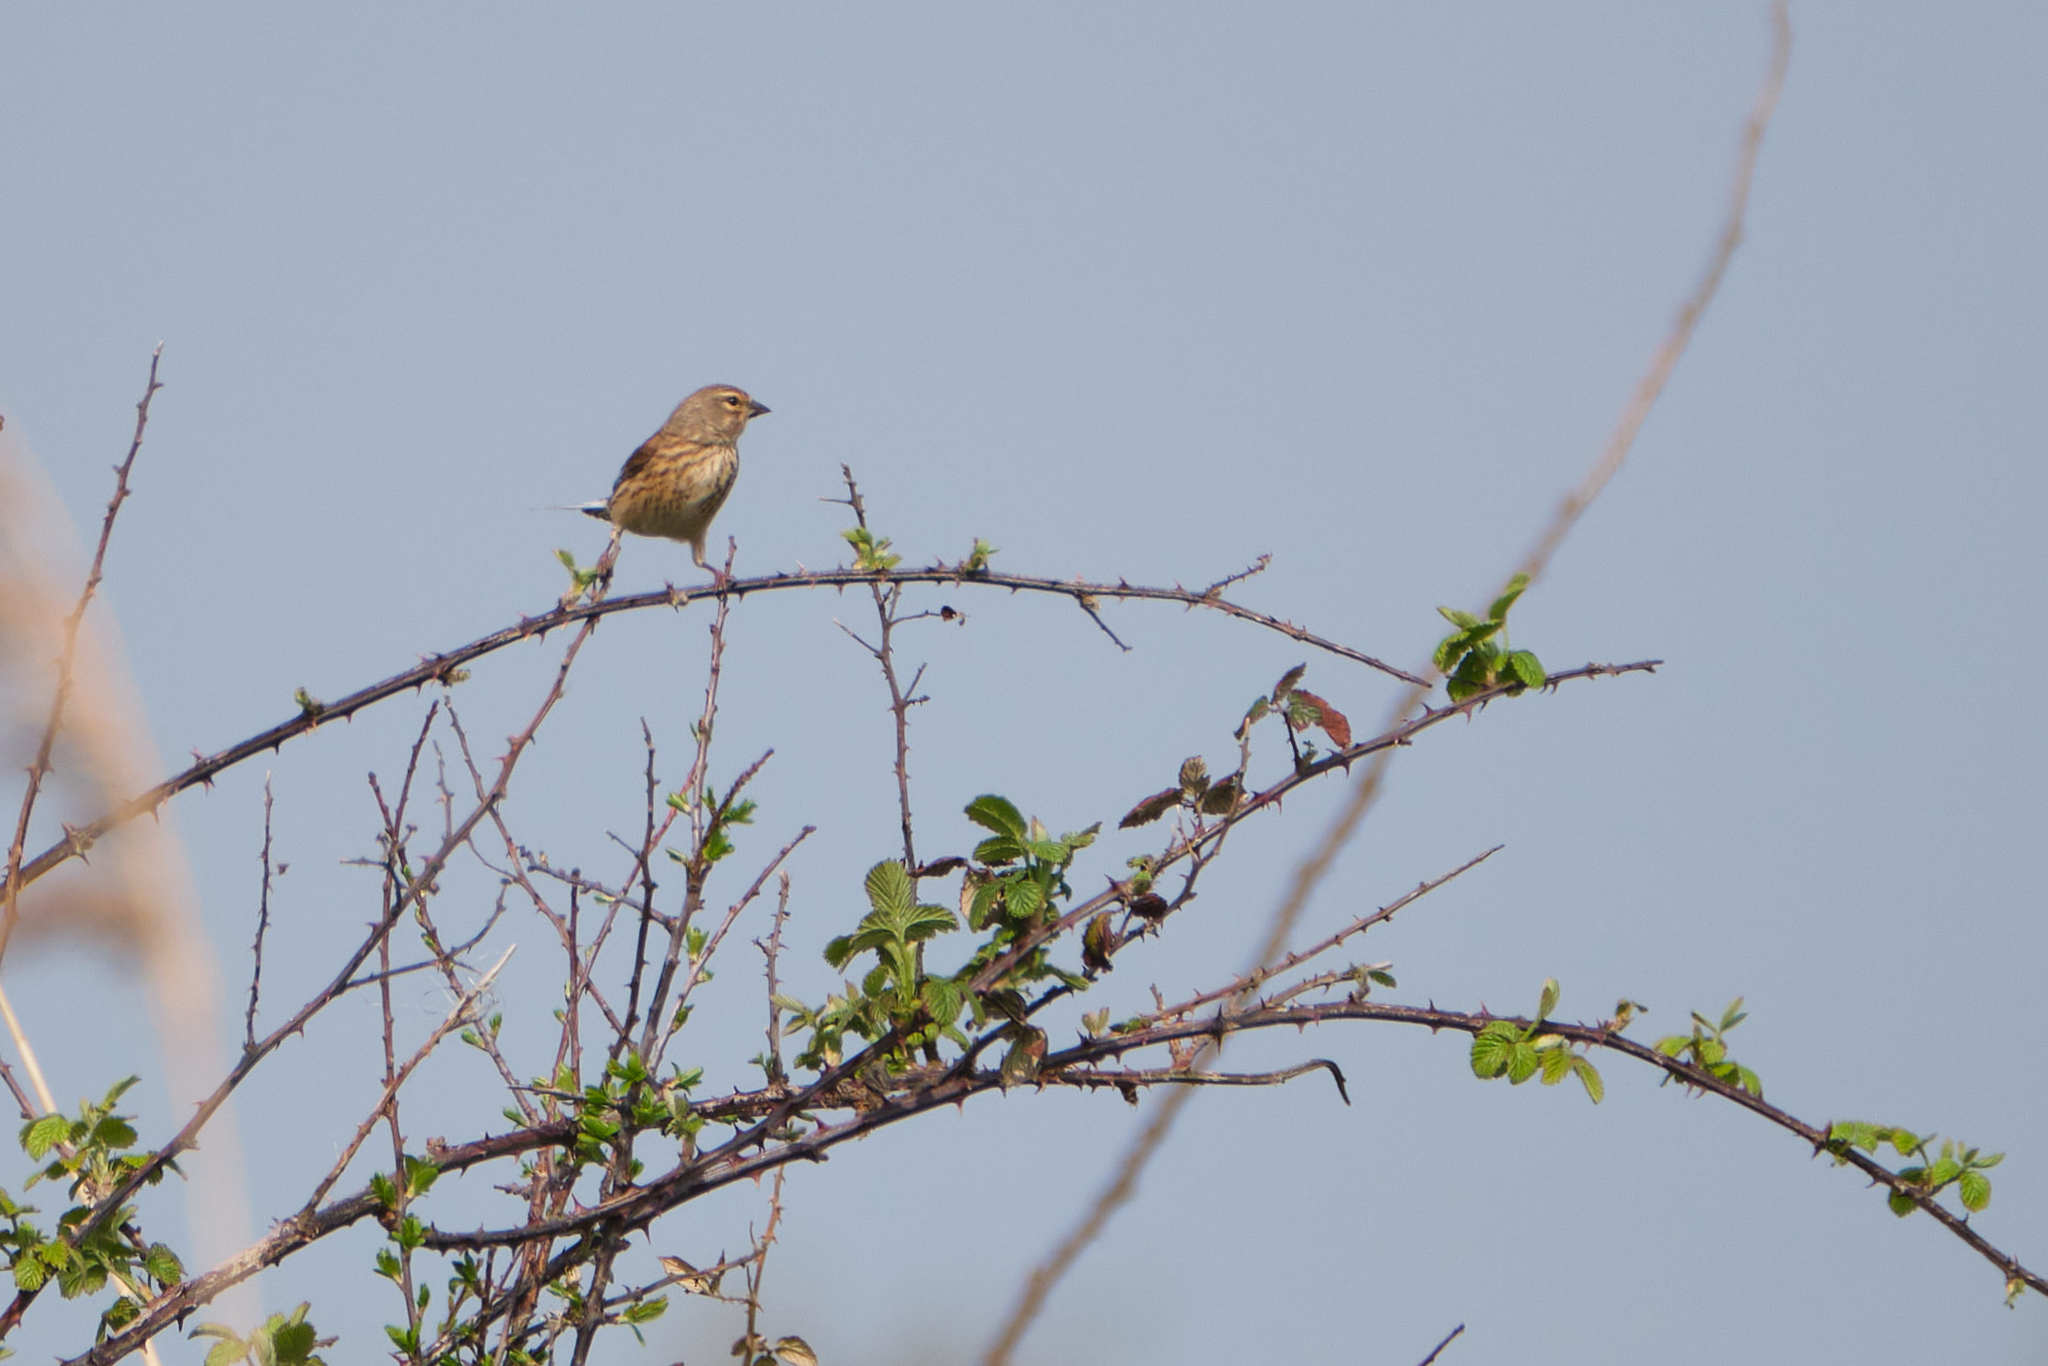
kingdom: Animalia
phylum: Chordata
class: Aves
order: Passeriformes
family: Fringillidae
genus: Linaria
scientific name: Linaria cannabina
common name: Common linnet
